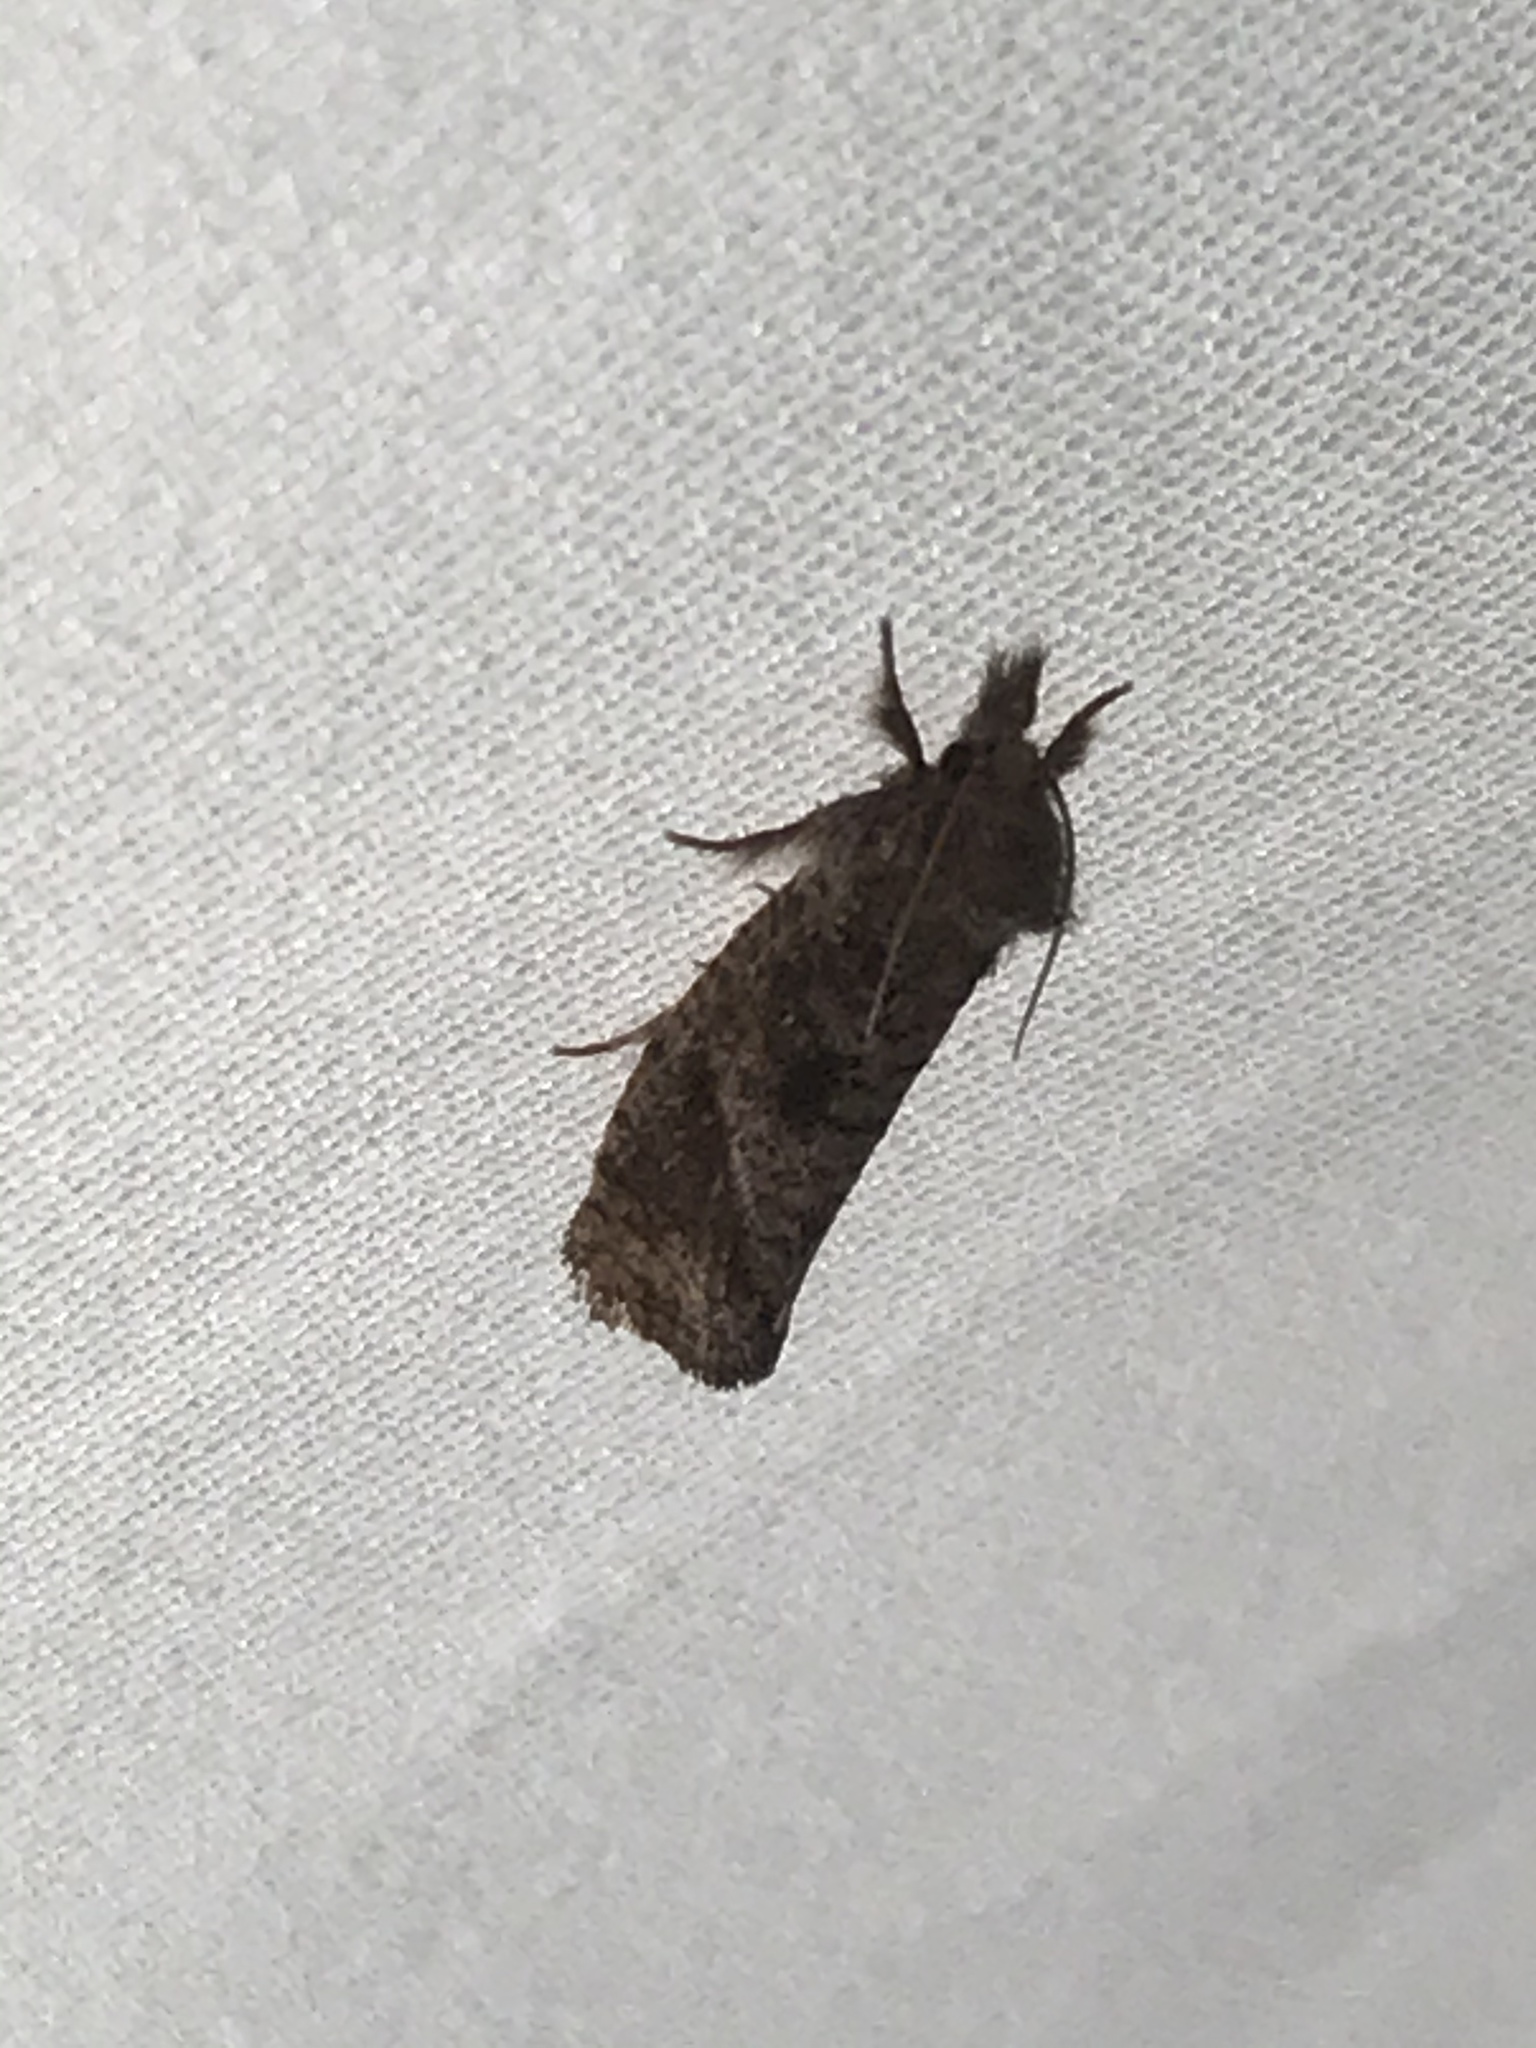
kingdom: Animalia
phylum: Arthropoda
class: Insecta
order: Lepidoptera
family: Tineidae
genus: Acrolophus
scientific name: Acrolophus texanella
